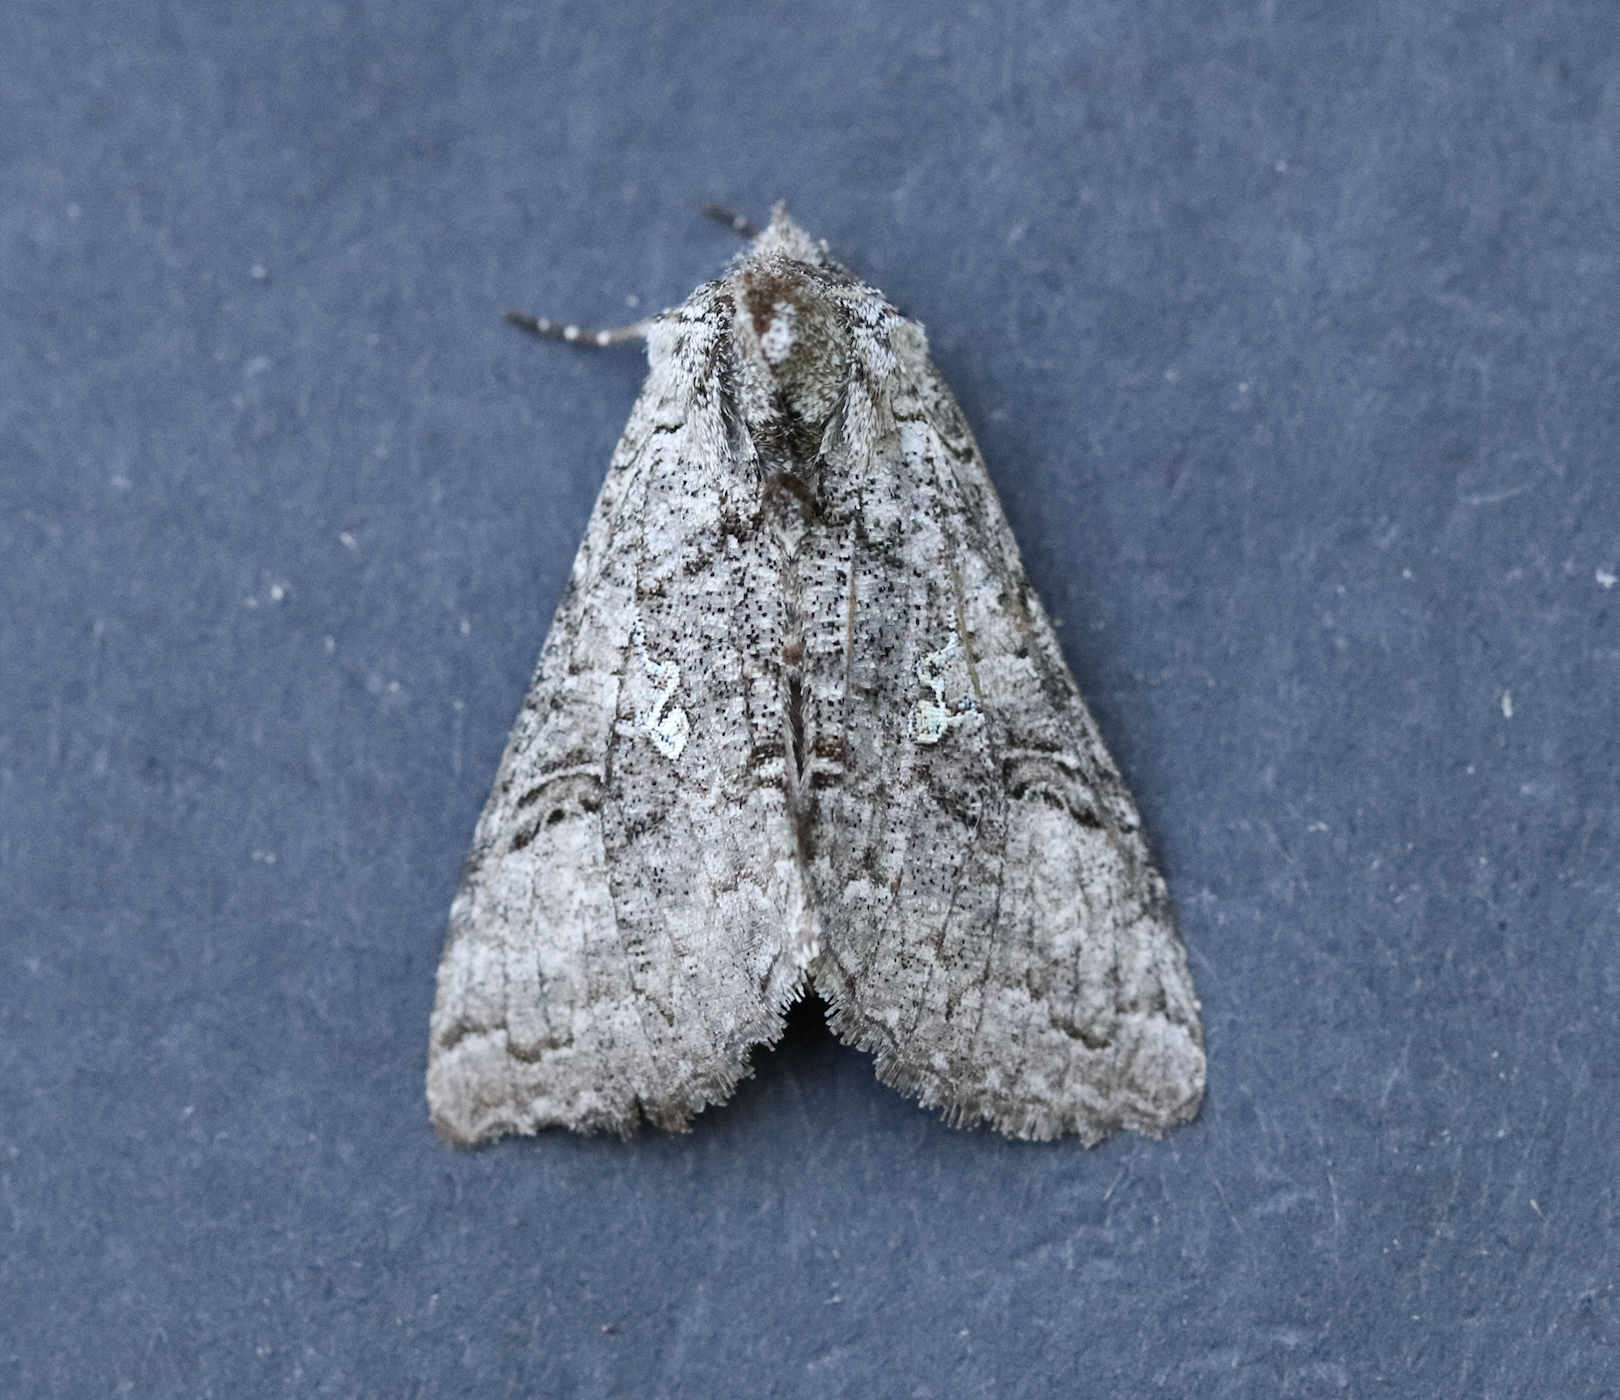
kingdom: Animalia
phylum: Arthropoda
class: Insecta
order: Lepidoptera
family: Noctuidae
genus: Syngrapha
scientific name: Syngrapha viridisigma
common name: Spruce false looper moth
